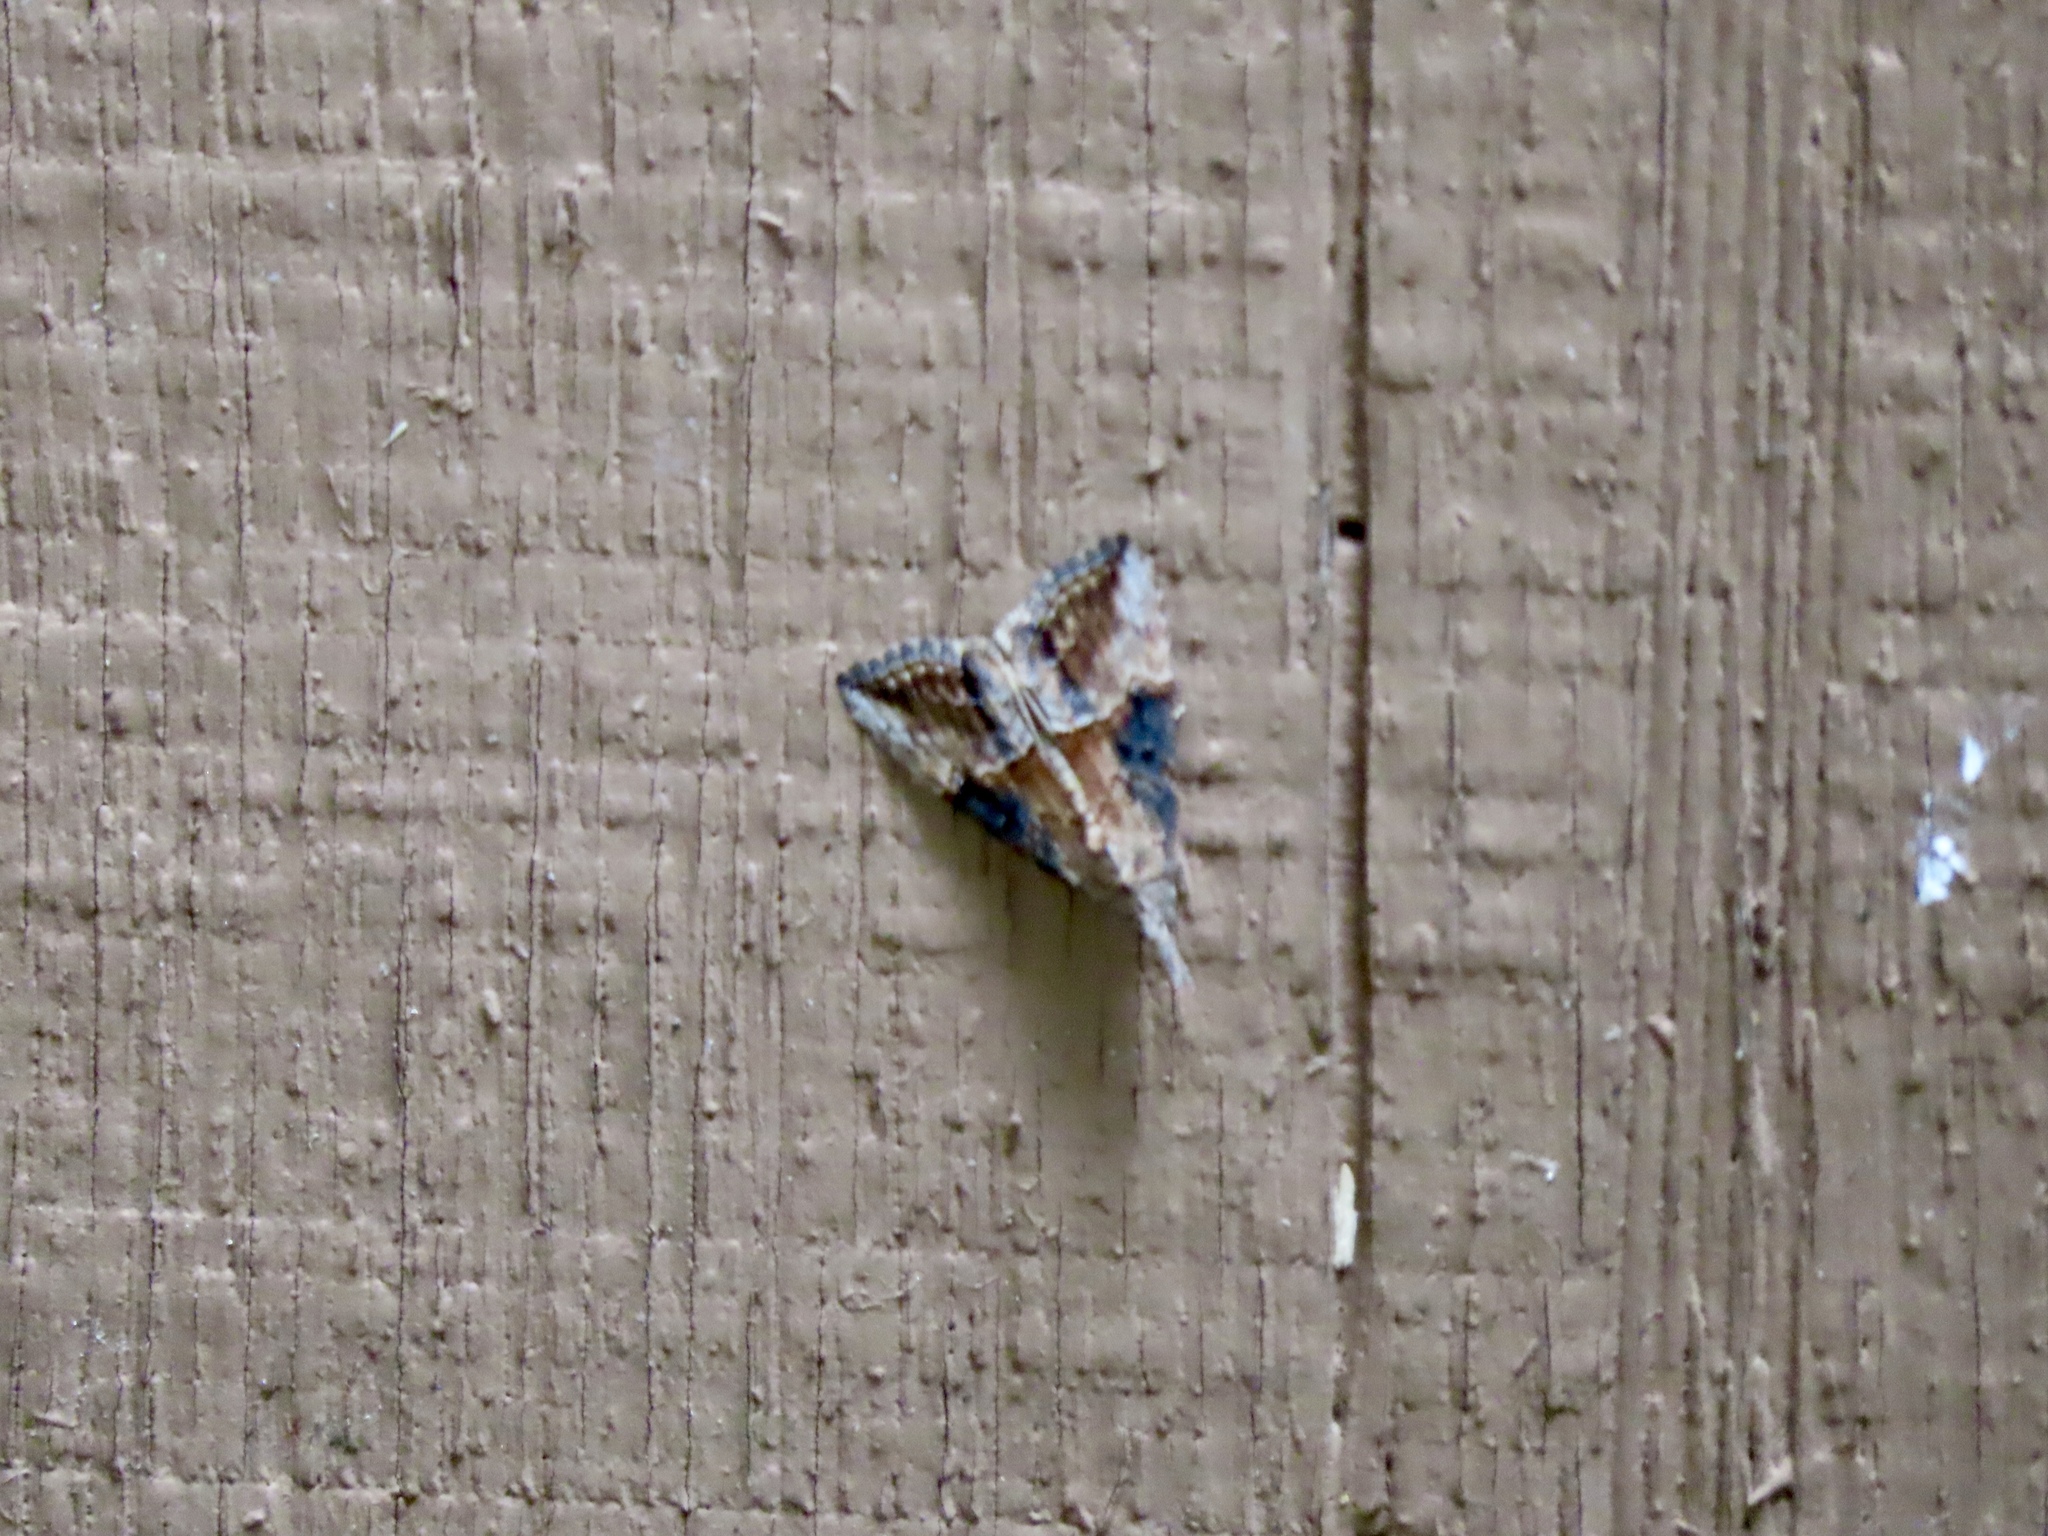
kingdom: Animalia
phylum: Arthropoda
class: Insecta
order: Lepidoptera
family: Erebidae
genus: Hypena
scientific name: Hypena scabra
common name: Green cloverworm
